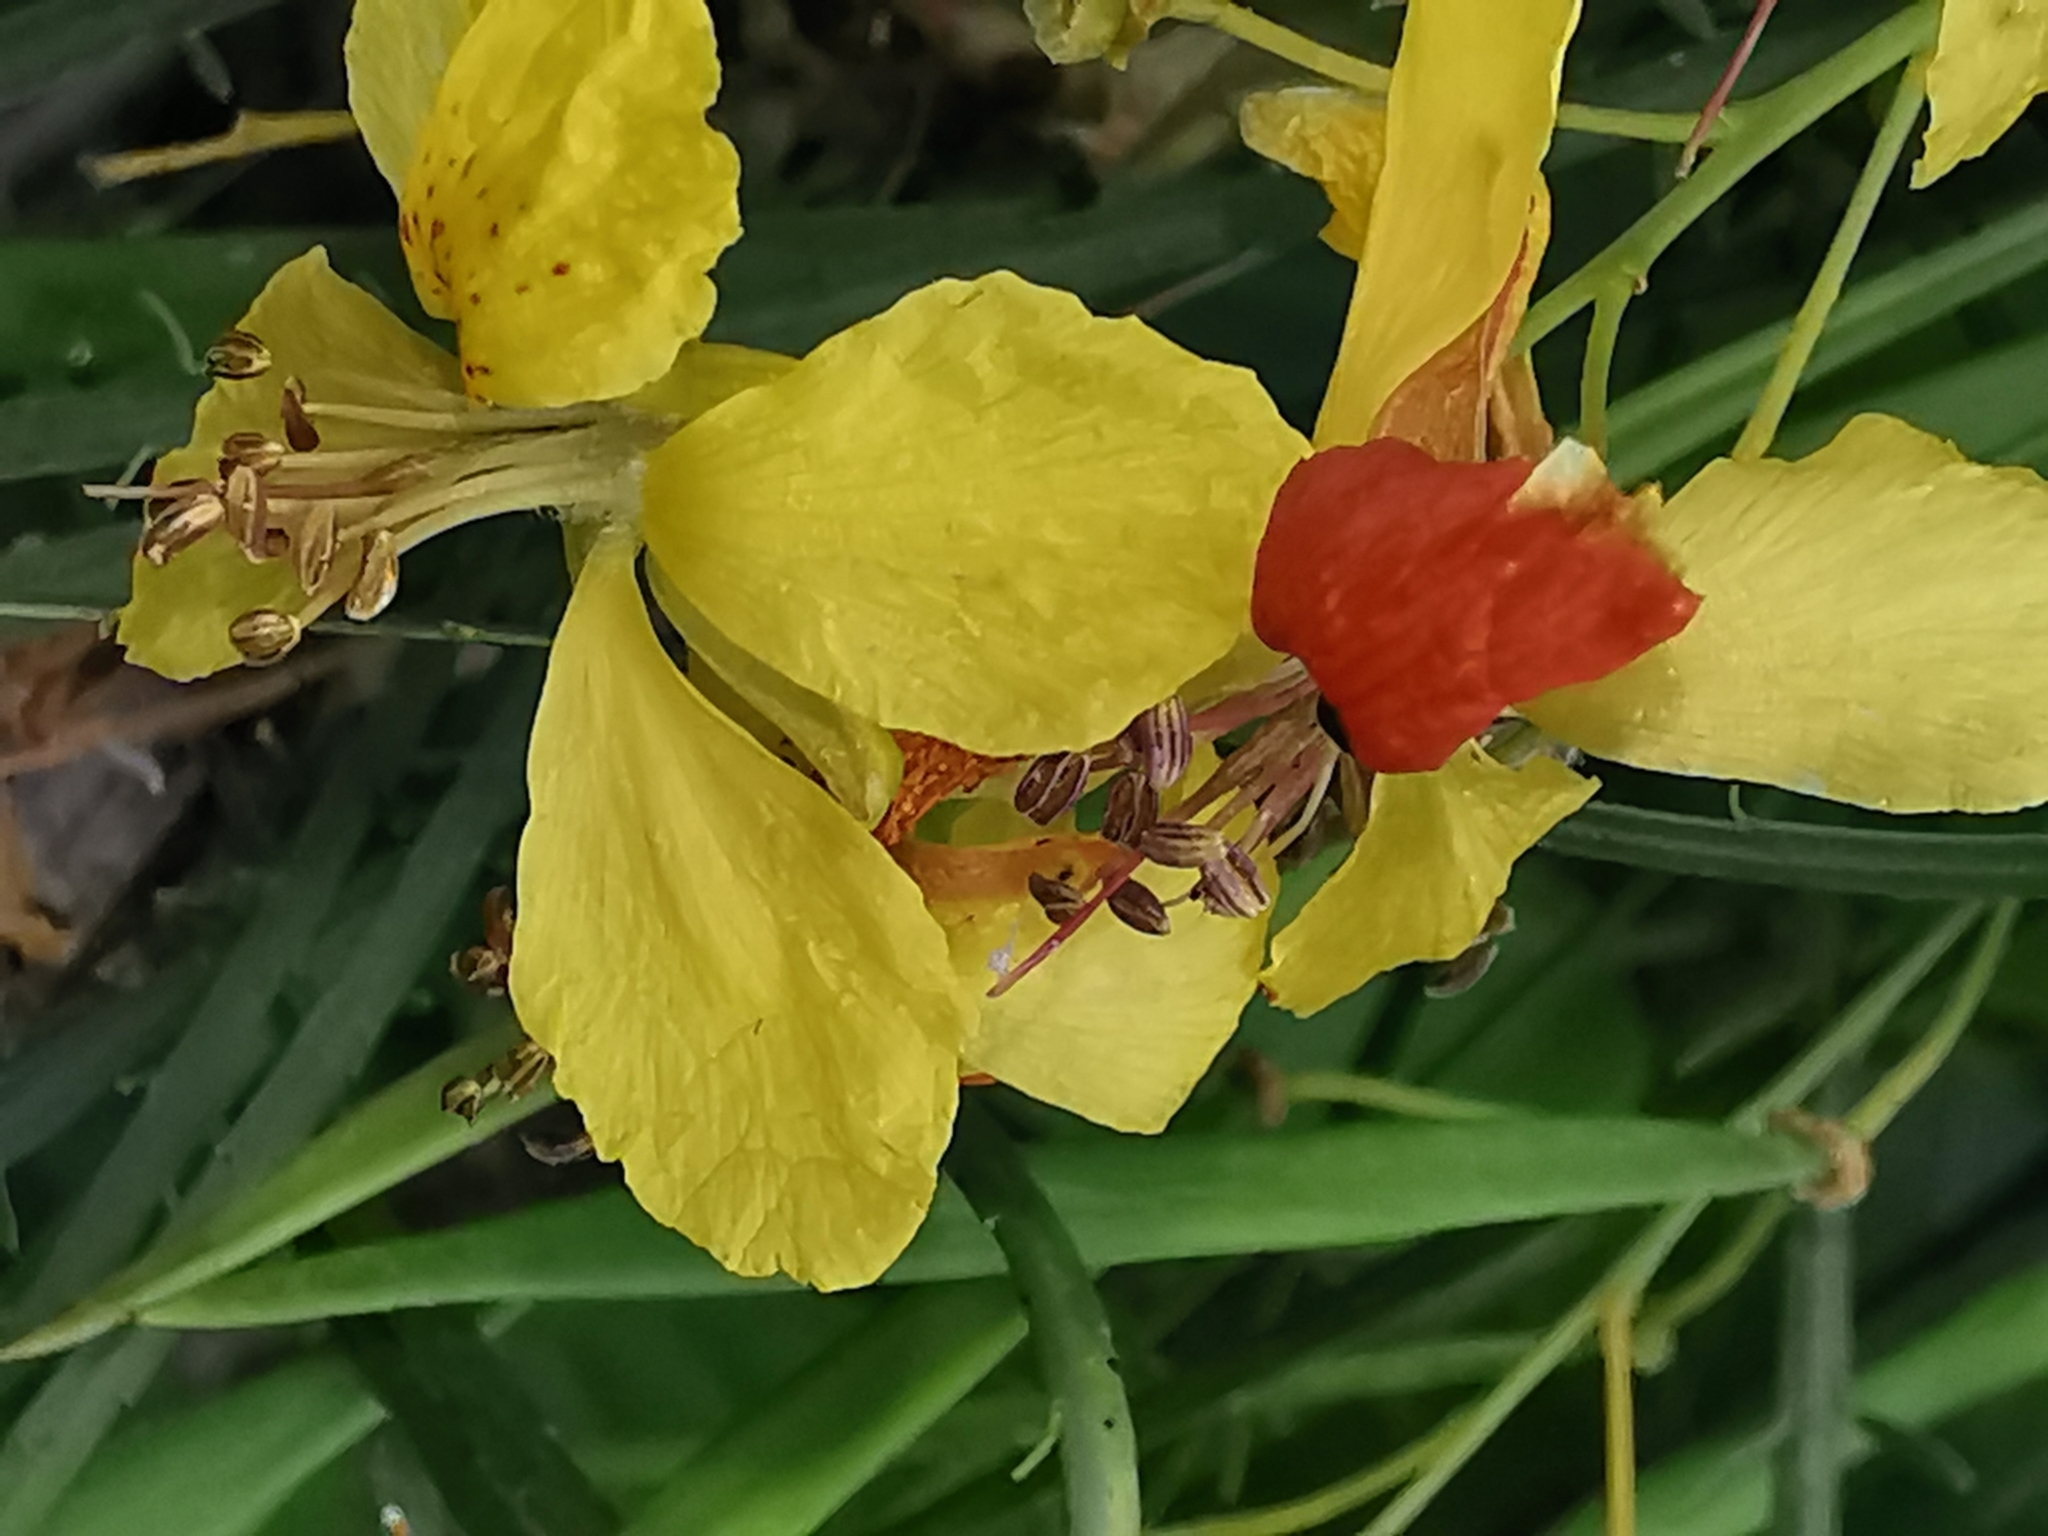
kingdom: Plantae
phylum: Tracheophyta
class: Magnoliopsida
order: Fabales
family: Fabaceae
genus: Parkinsonia
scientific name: Parkinsonia aculeata
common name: Jerusalem thorn
